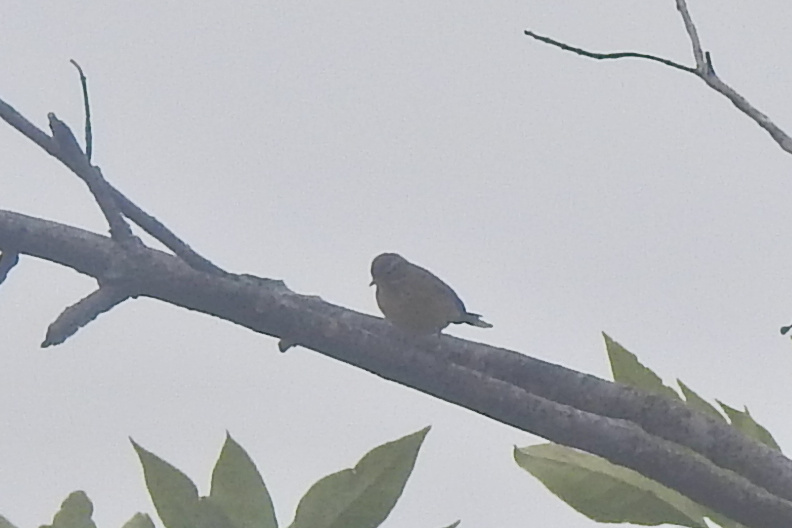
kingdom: Animalia
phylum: Chordata
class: Aves
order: Passeriformes
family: Parulidae
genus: Setophaga
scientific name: Setophaga palmarum
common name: Palm warbler
